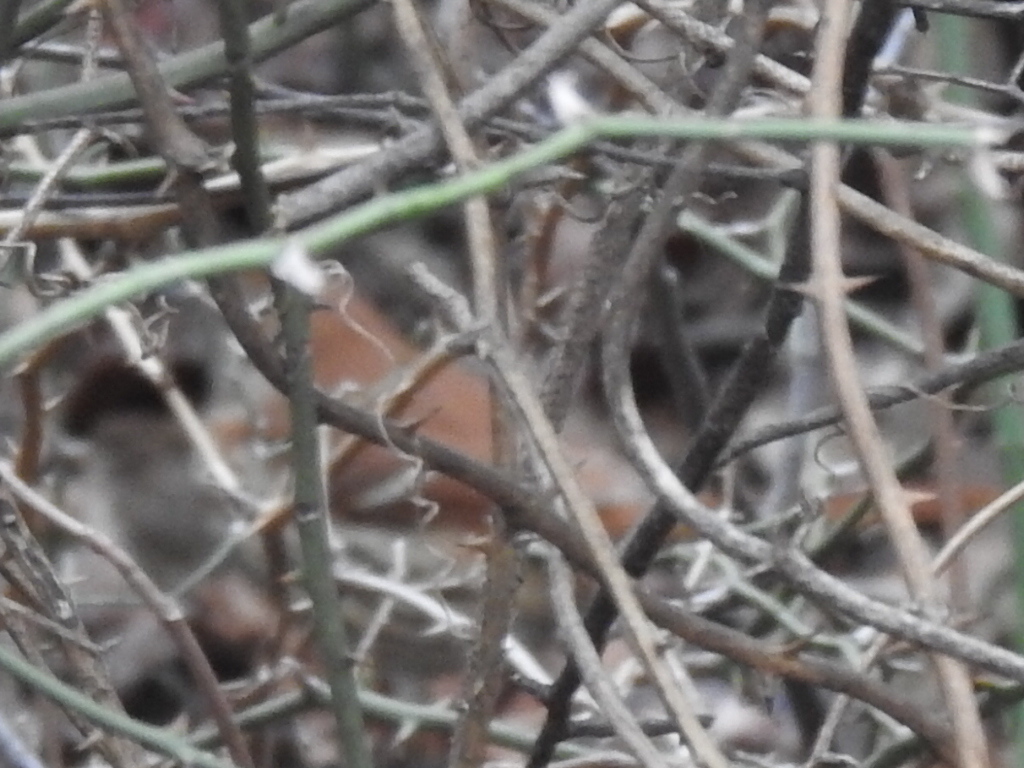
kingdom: Animalia
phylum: Chordata
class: Aves
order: Passeriformes
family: Mimidae
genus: Toxostoma
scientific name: Toxostoma rufum
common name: Brown thrasher
